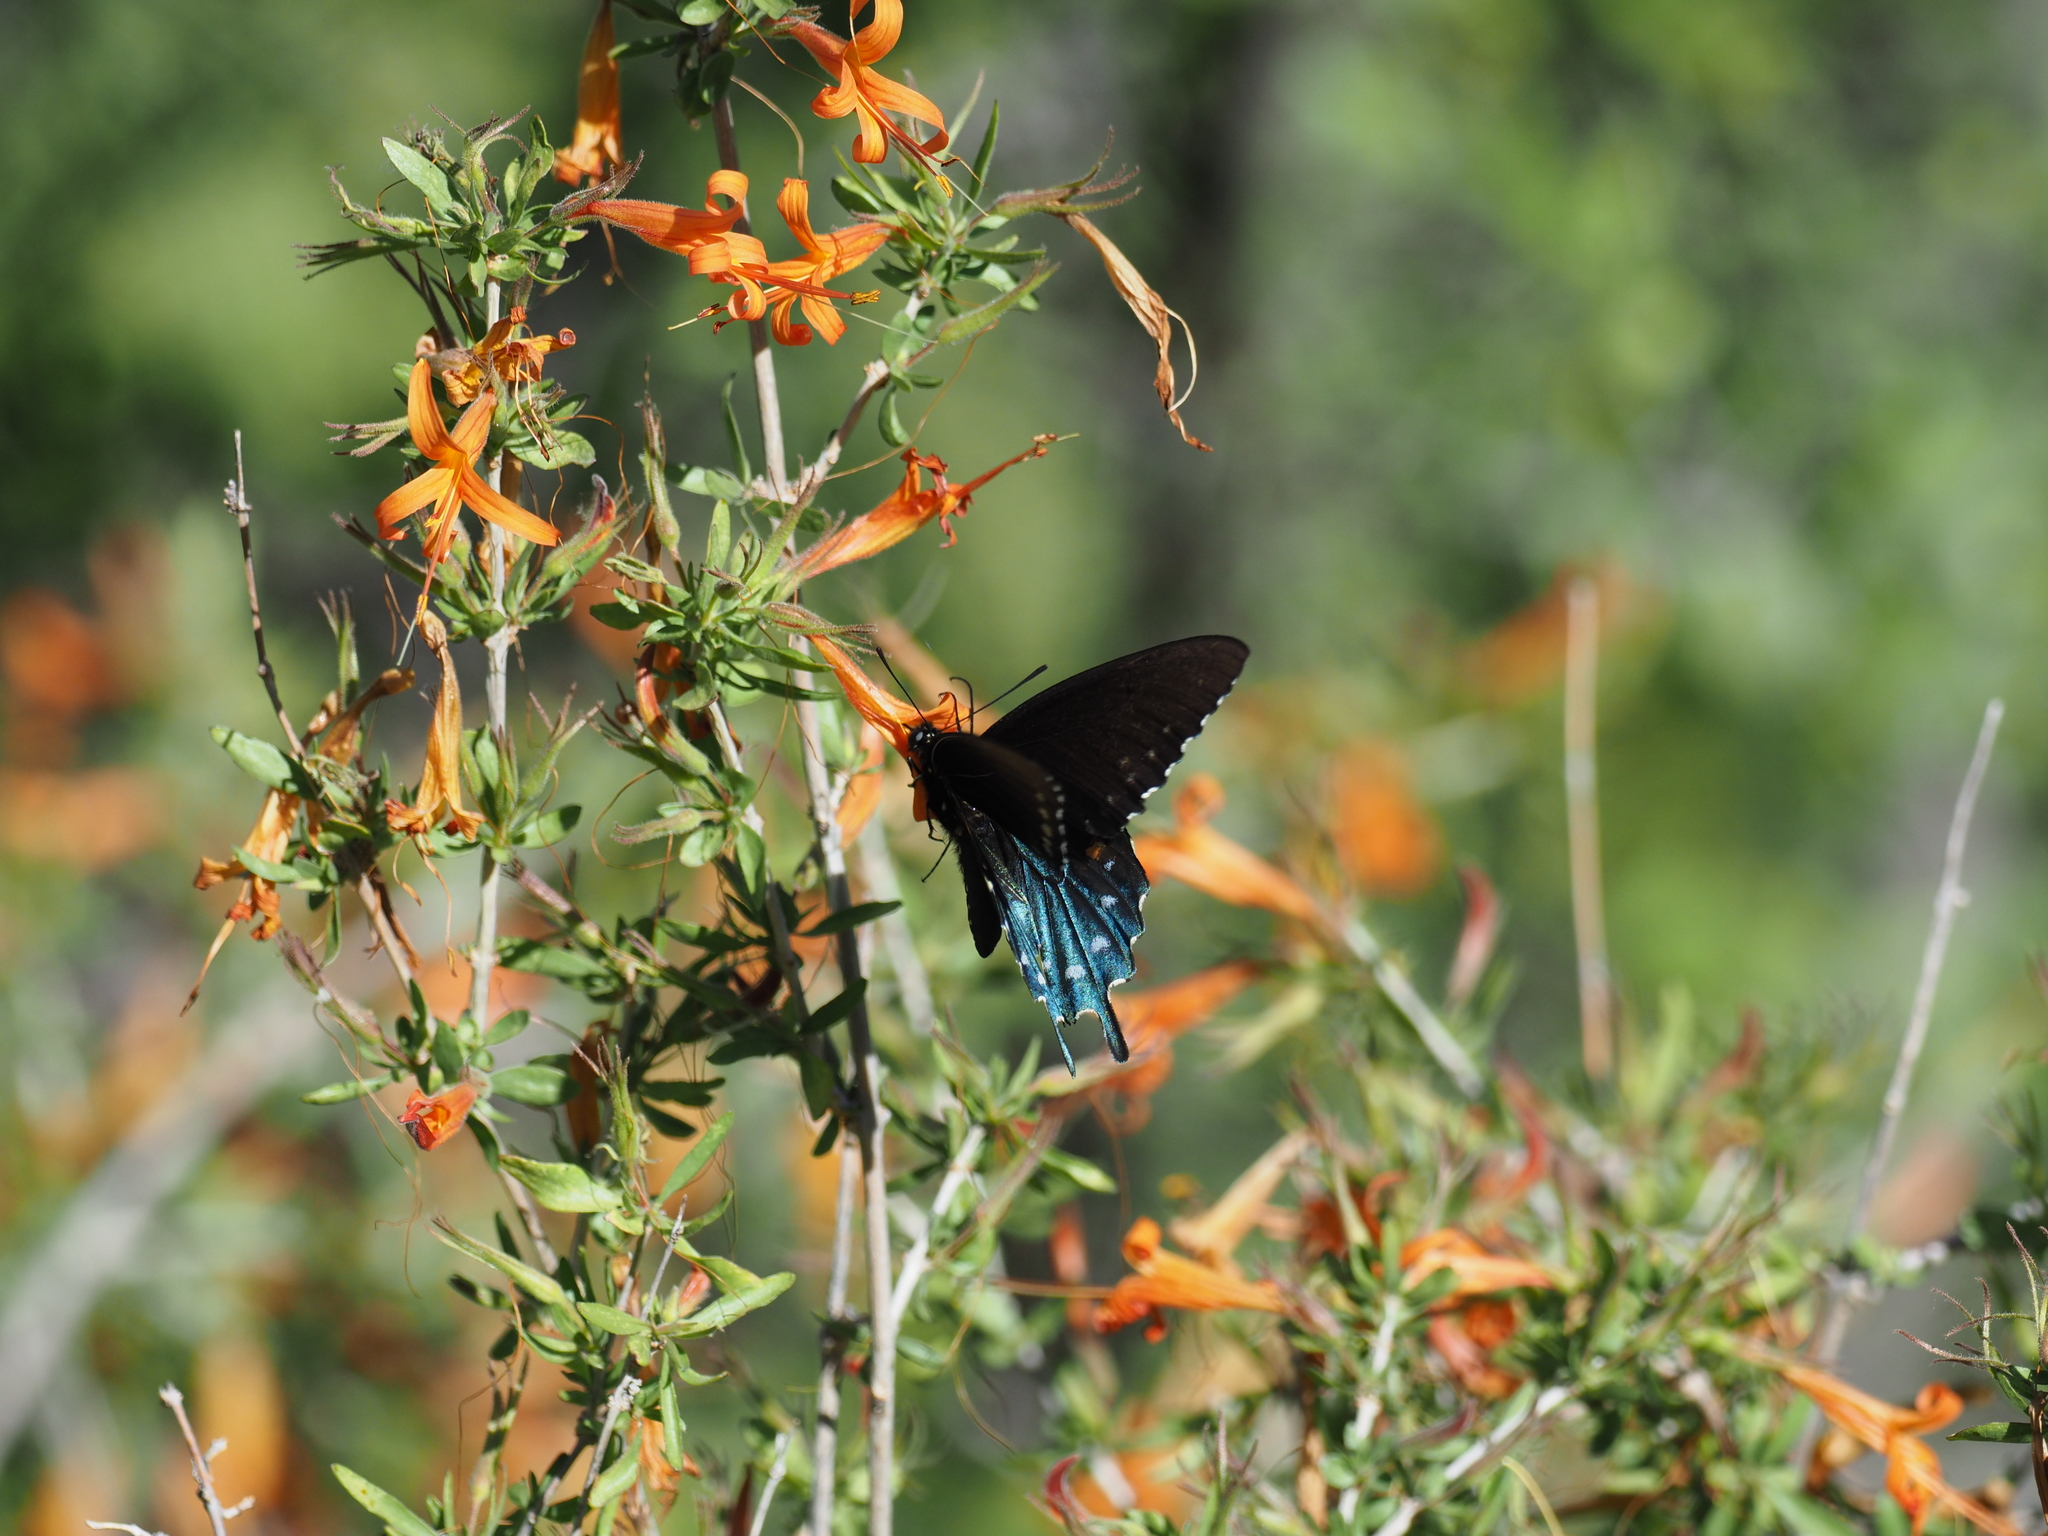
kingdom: Animalia
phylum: Arthropoda
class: Insecta
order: Lepidoptera
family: Papilionidae
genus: Battus
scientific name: Battus philenor
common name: Pipevine swallowtail
